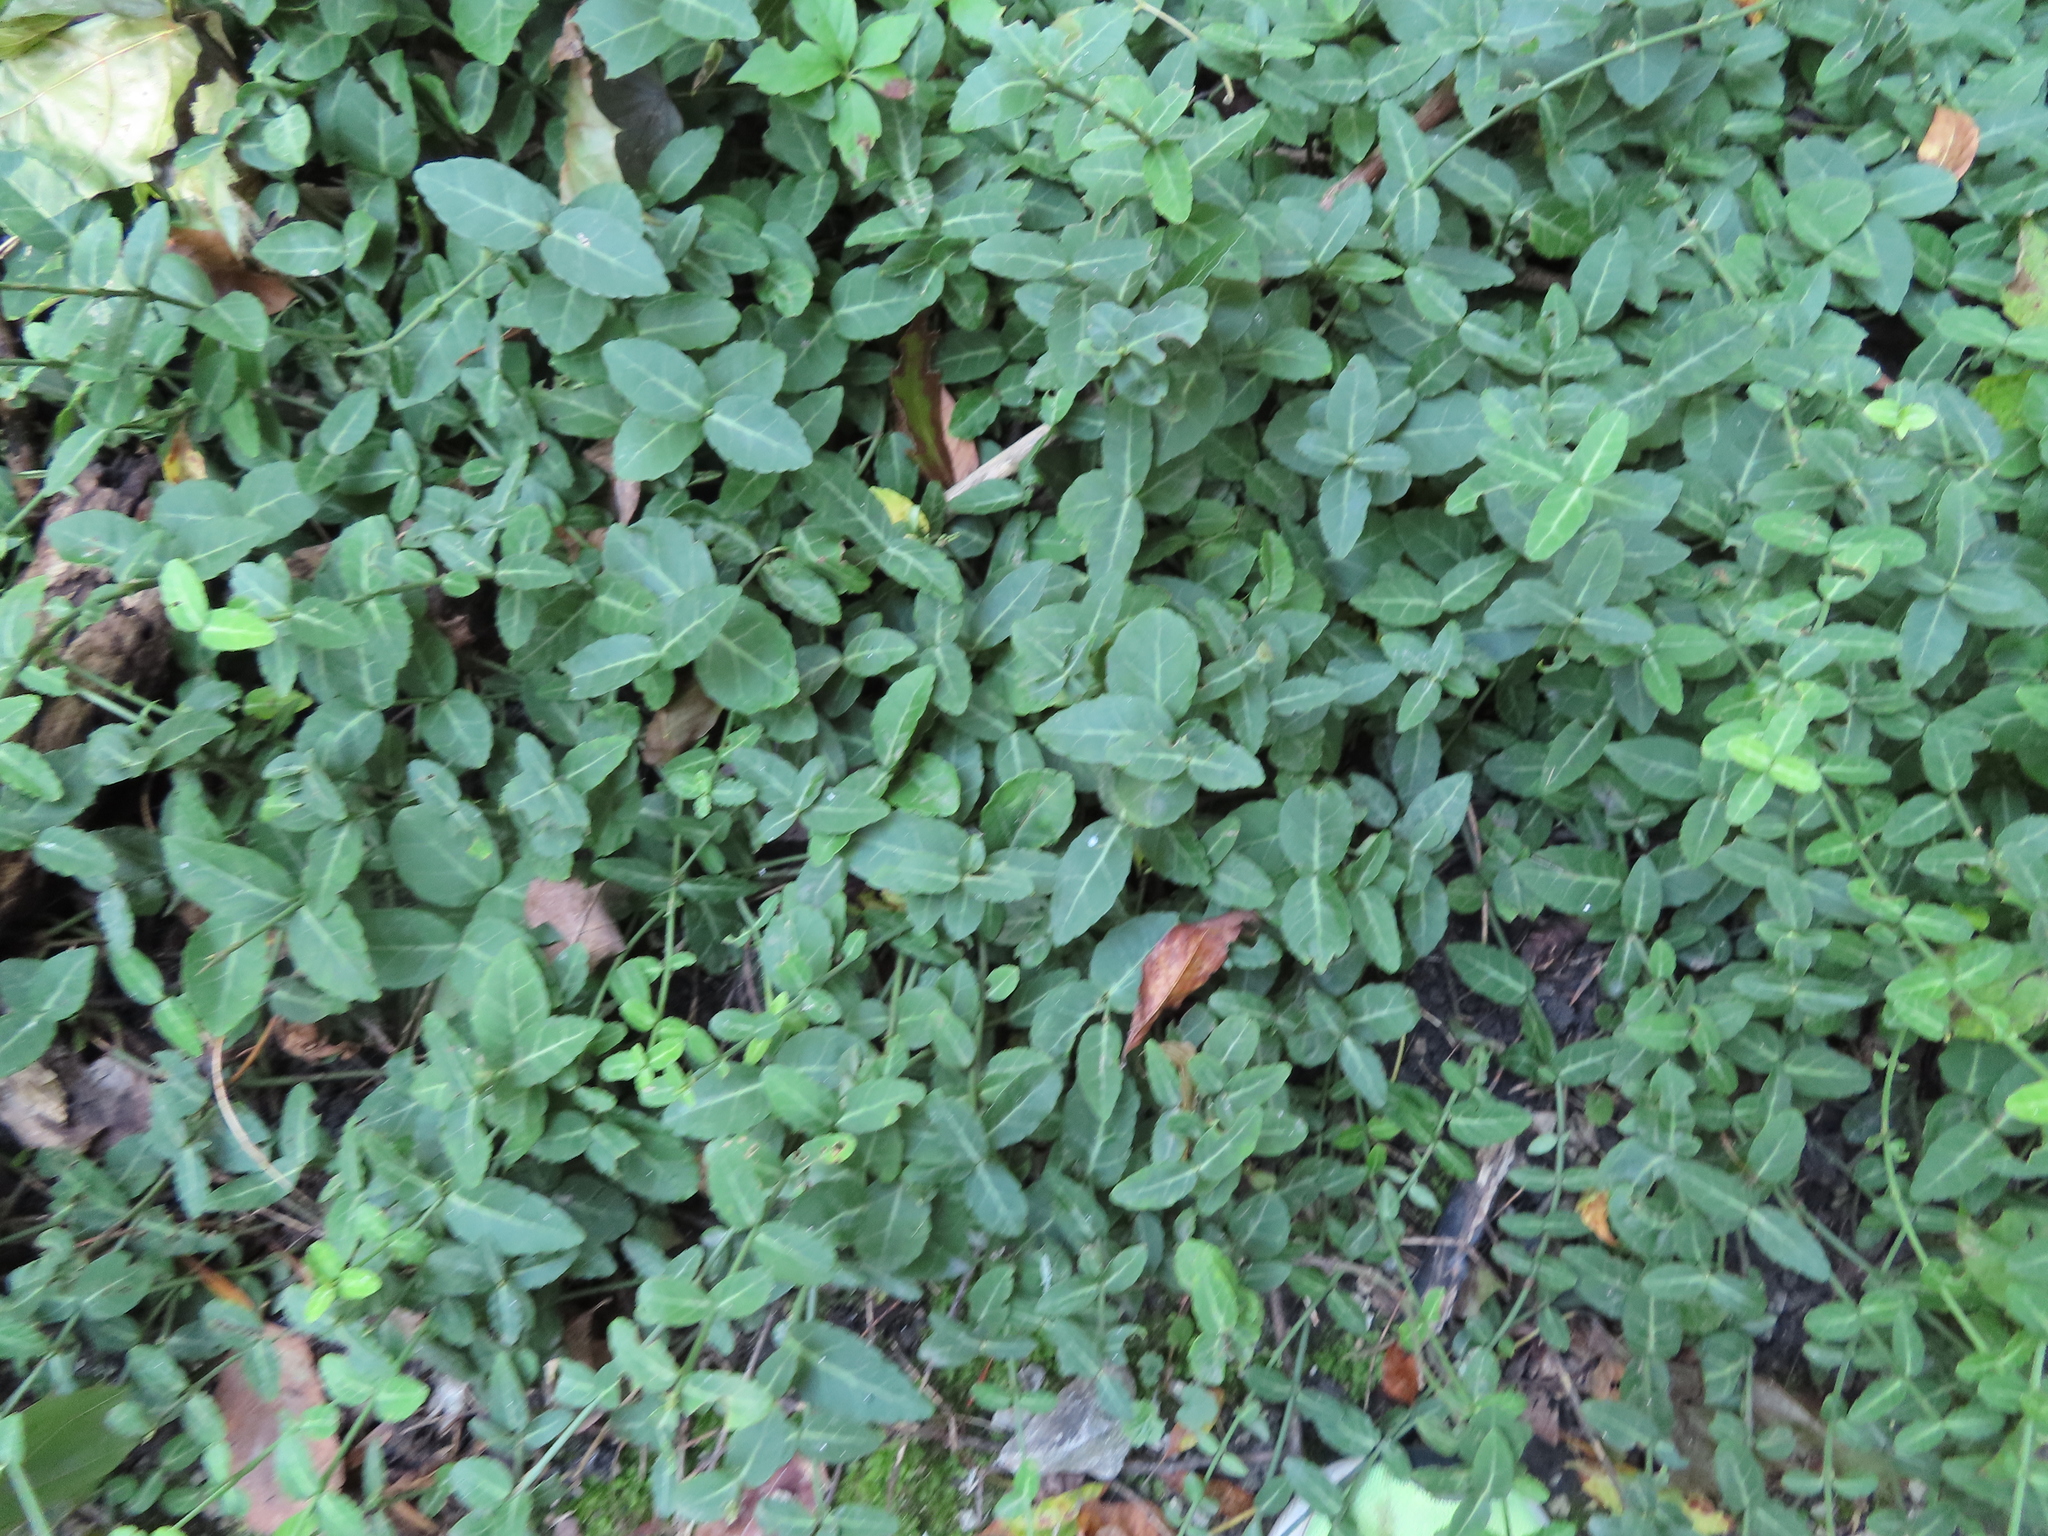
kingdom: Plantae
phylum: Tracheophyta
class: Magnoliopsida
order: Celastrales
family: Celastraceae
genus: Euonymus
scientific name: Euonymus fortunei
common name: Climbing euonymus
